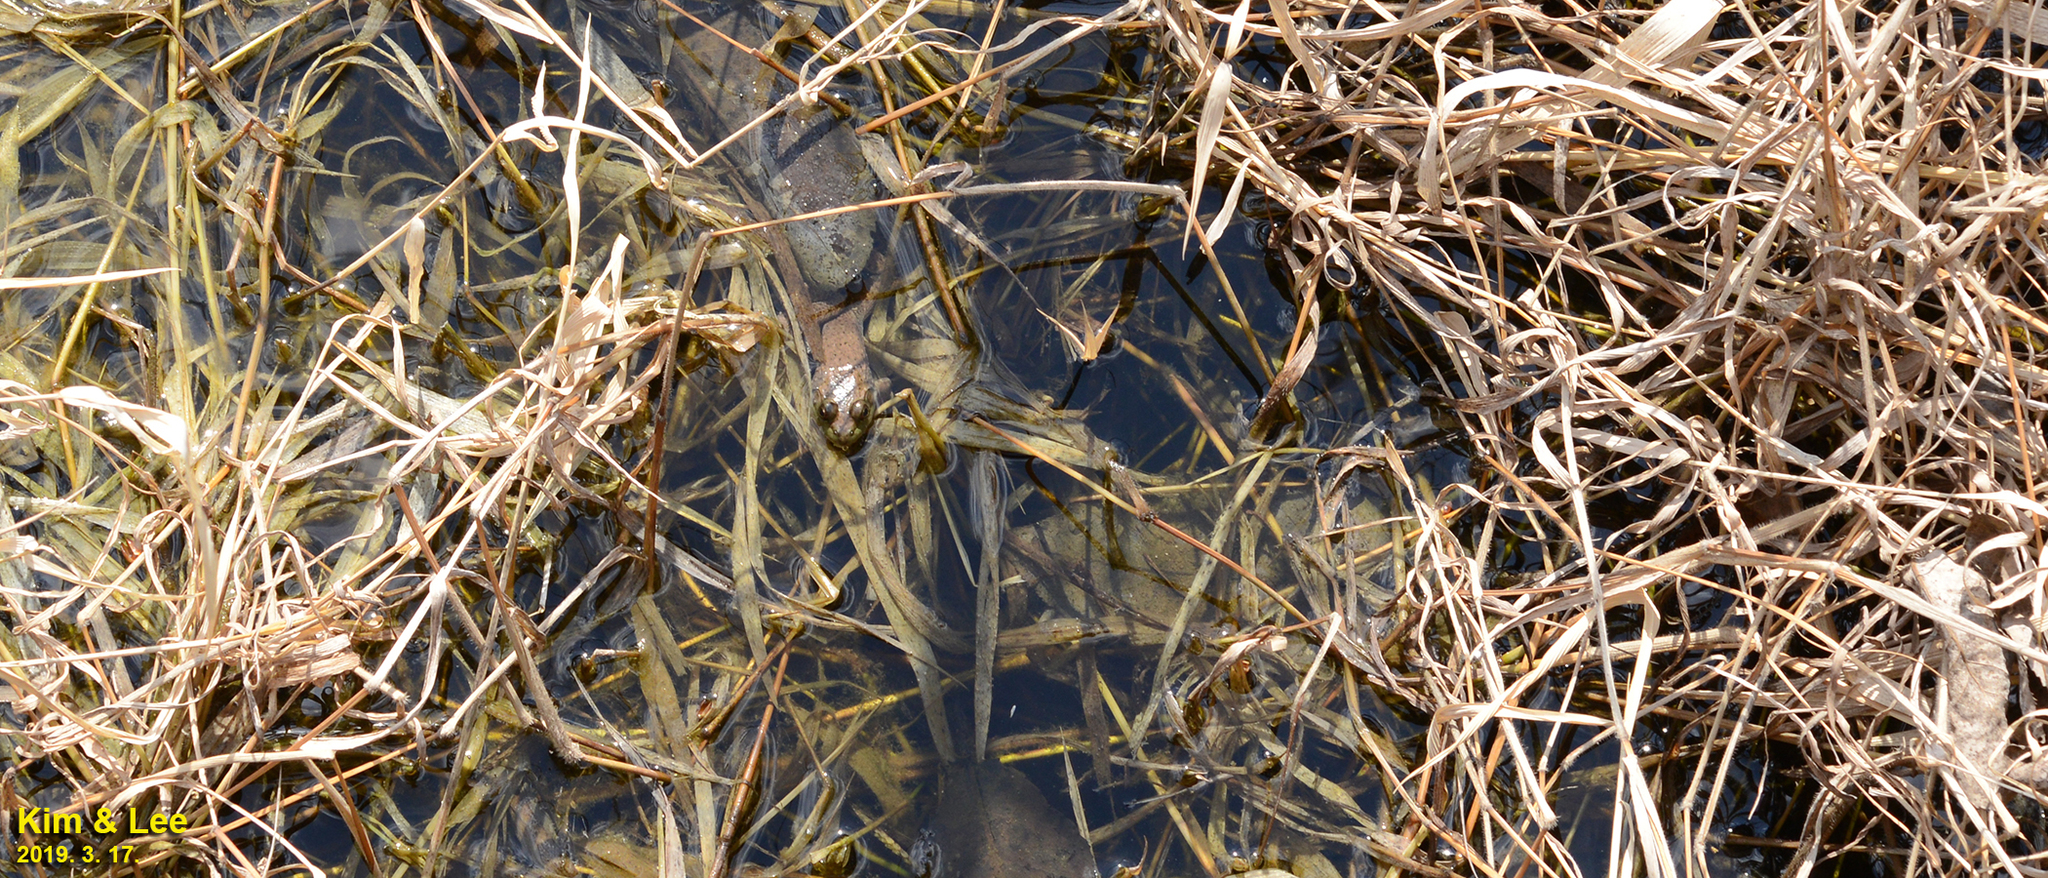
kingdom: Animalia
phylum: Chordata
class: Amphibia
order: Anura
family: Ranidae
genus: Lithobates
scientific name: Lithobates catesbeianus
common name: American bullfrog
